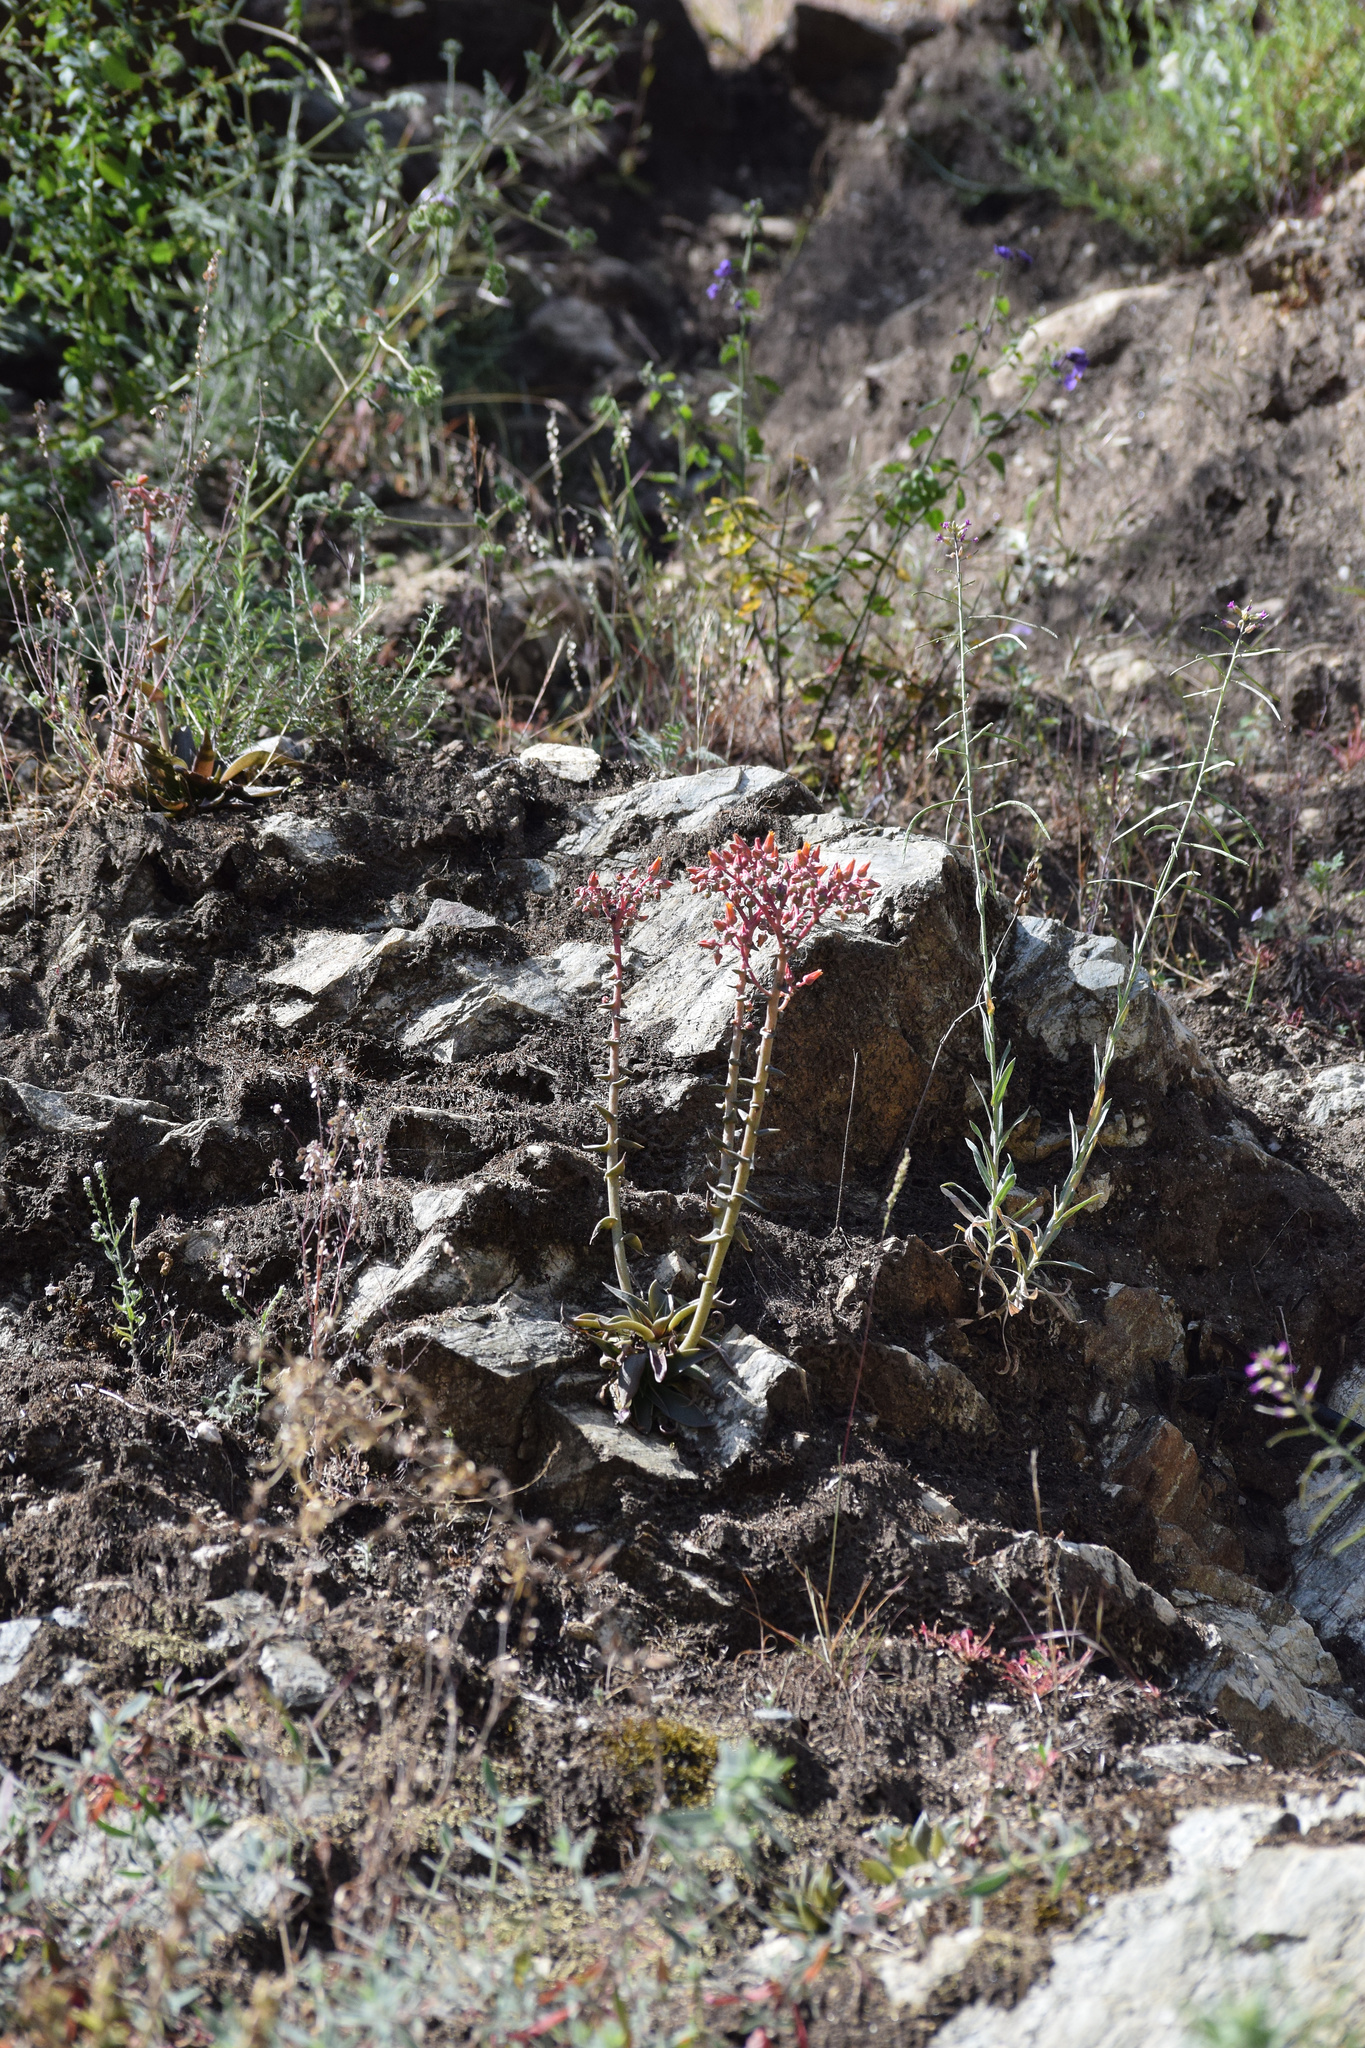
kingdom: Plantae
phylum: Tracheophyta
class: Magnoliopsida
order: Saxifragales
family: Crassulaceae
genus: Dudleya
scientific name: Dudleya lanceolata
